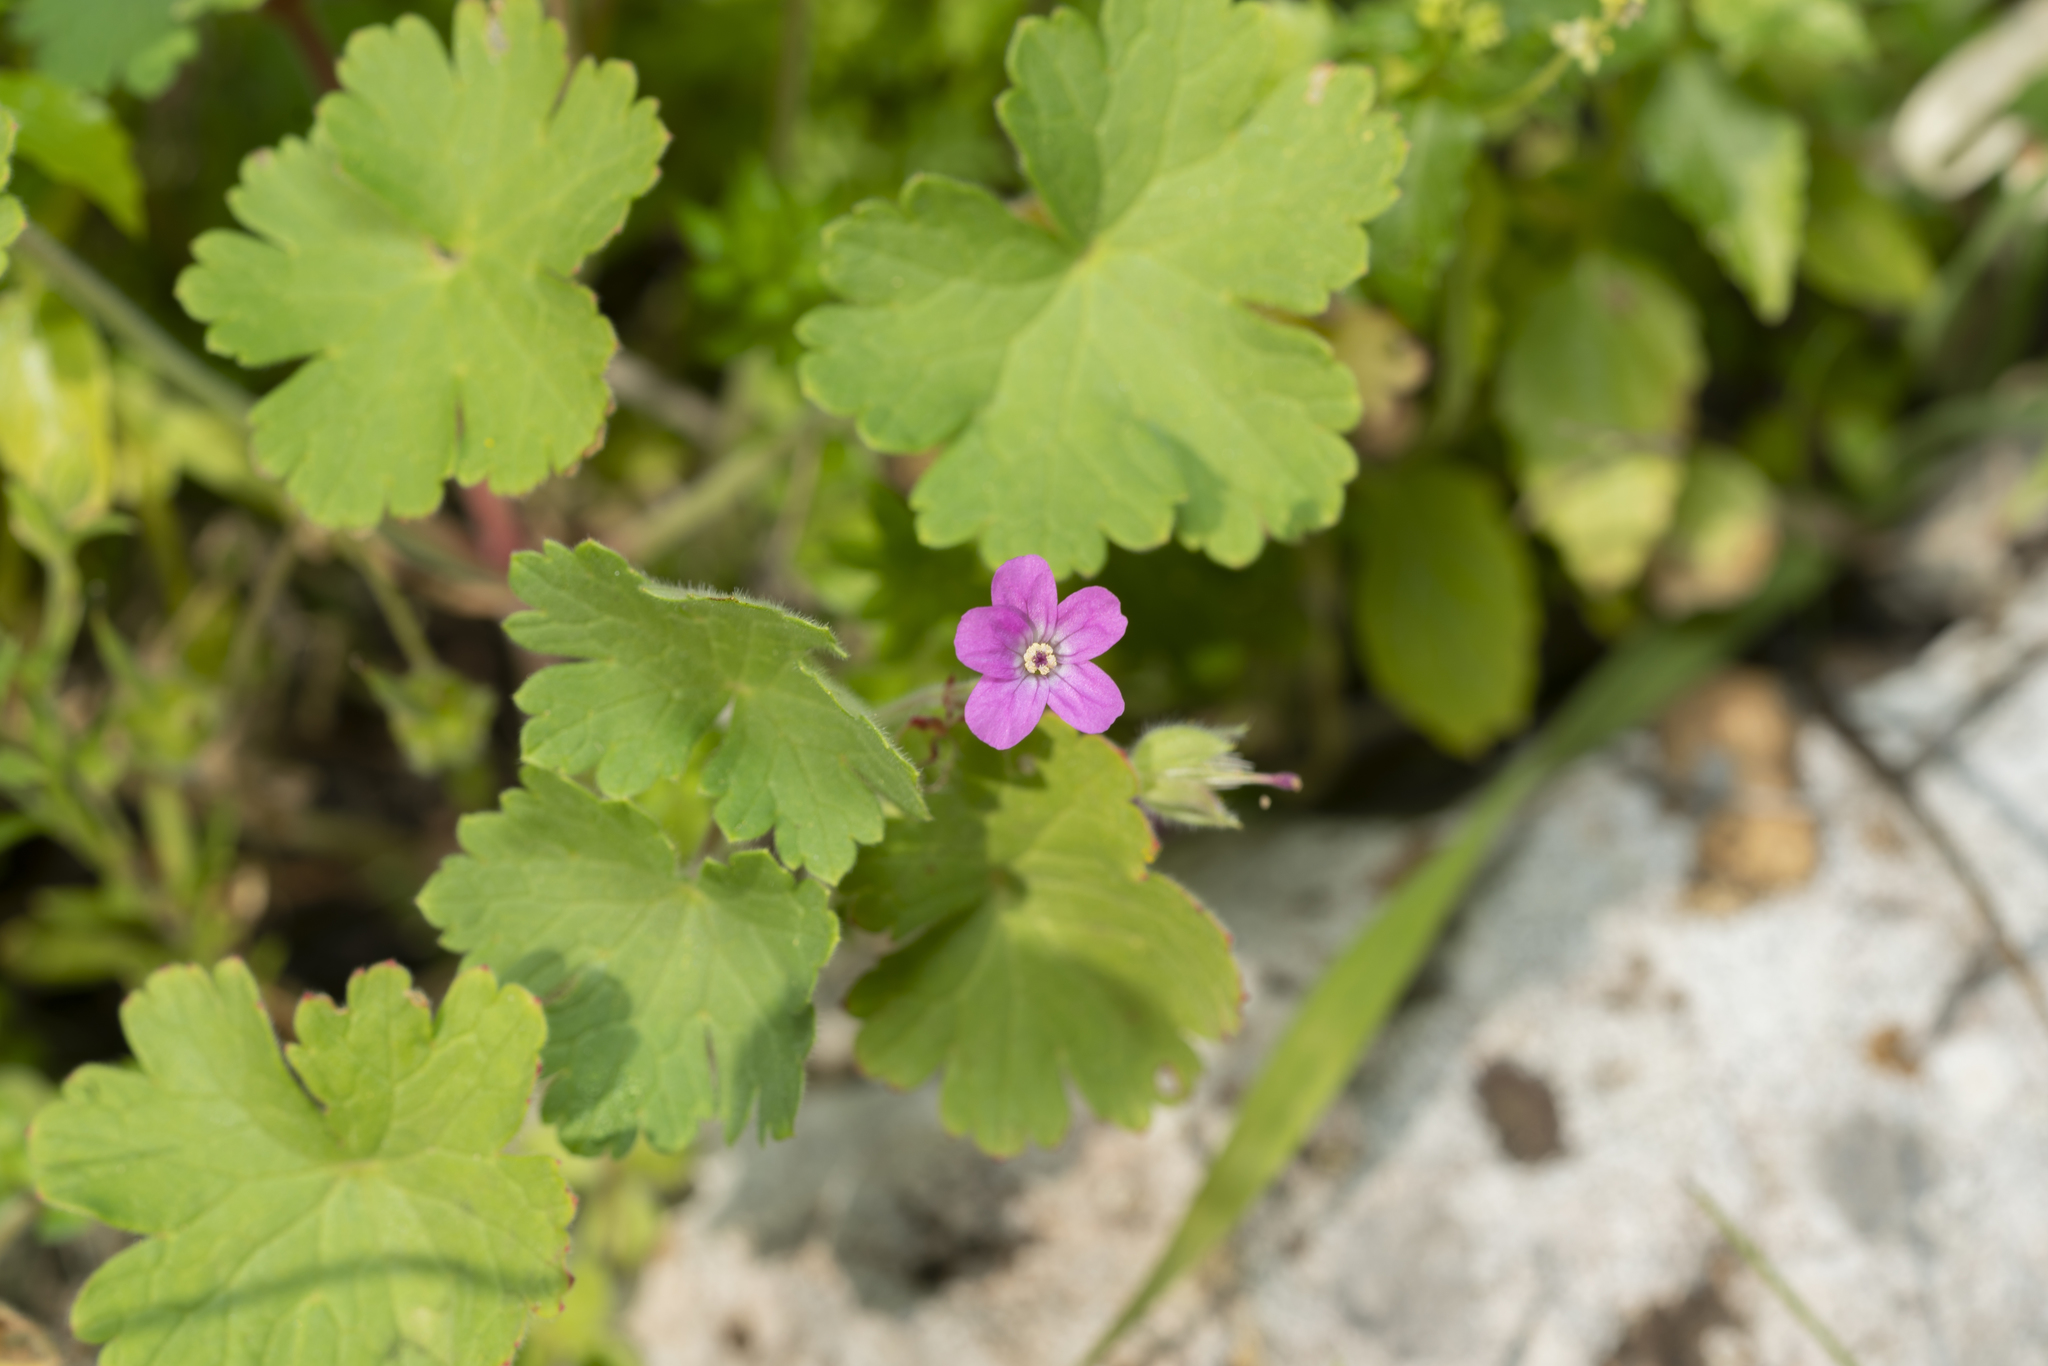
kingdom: Plantae
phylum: Tracheophyta
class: Magnoliopsida
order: Geraniales
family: Geraniaceae
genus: Geranium
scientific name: Geranium rotundifolium
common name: Round-leaved crane's-bill
